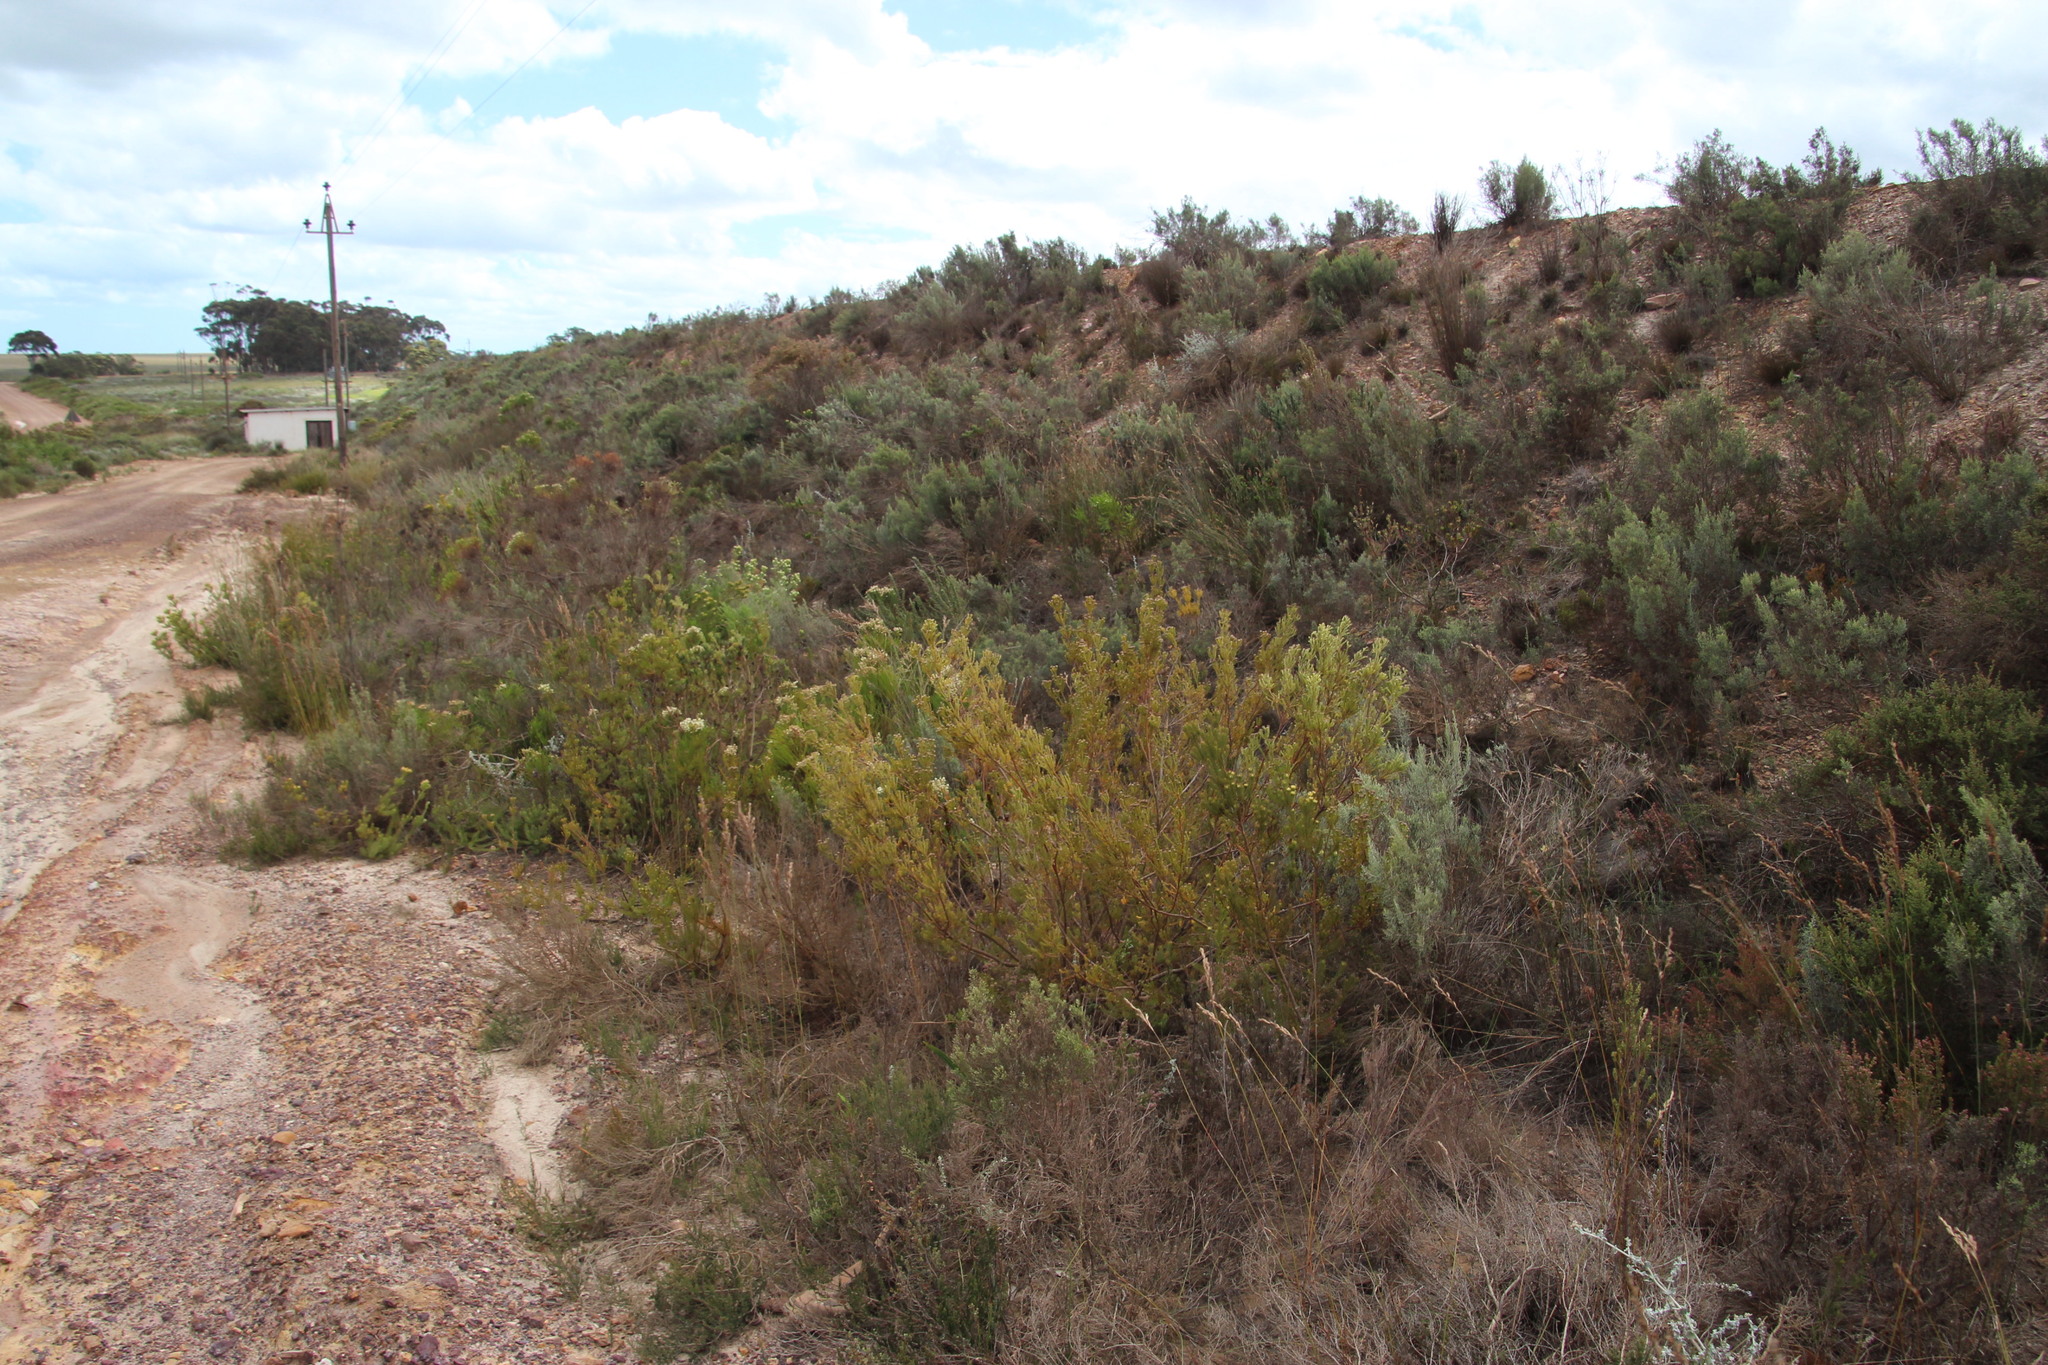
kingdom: Plantae
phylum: Tracheophyta
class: Magnoliopsida
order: Proteales
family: Proteaceae
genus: Leucadendron
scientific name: Leucadendron laxum
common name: Bredasdorp conebush
